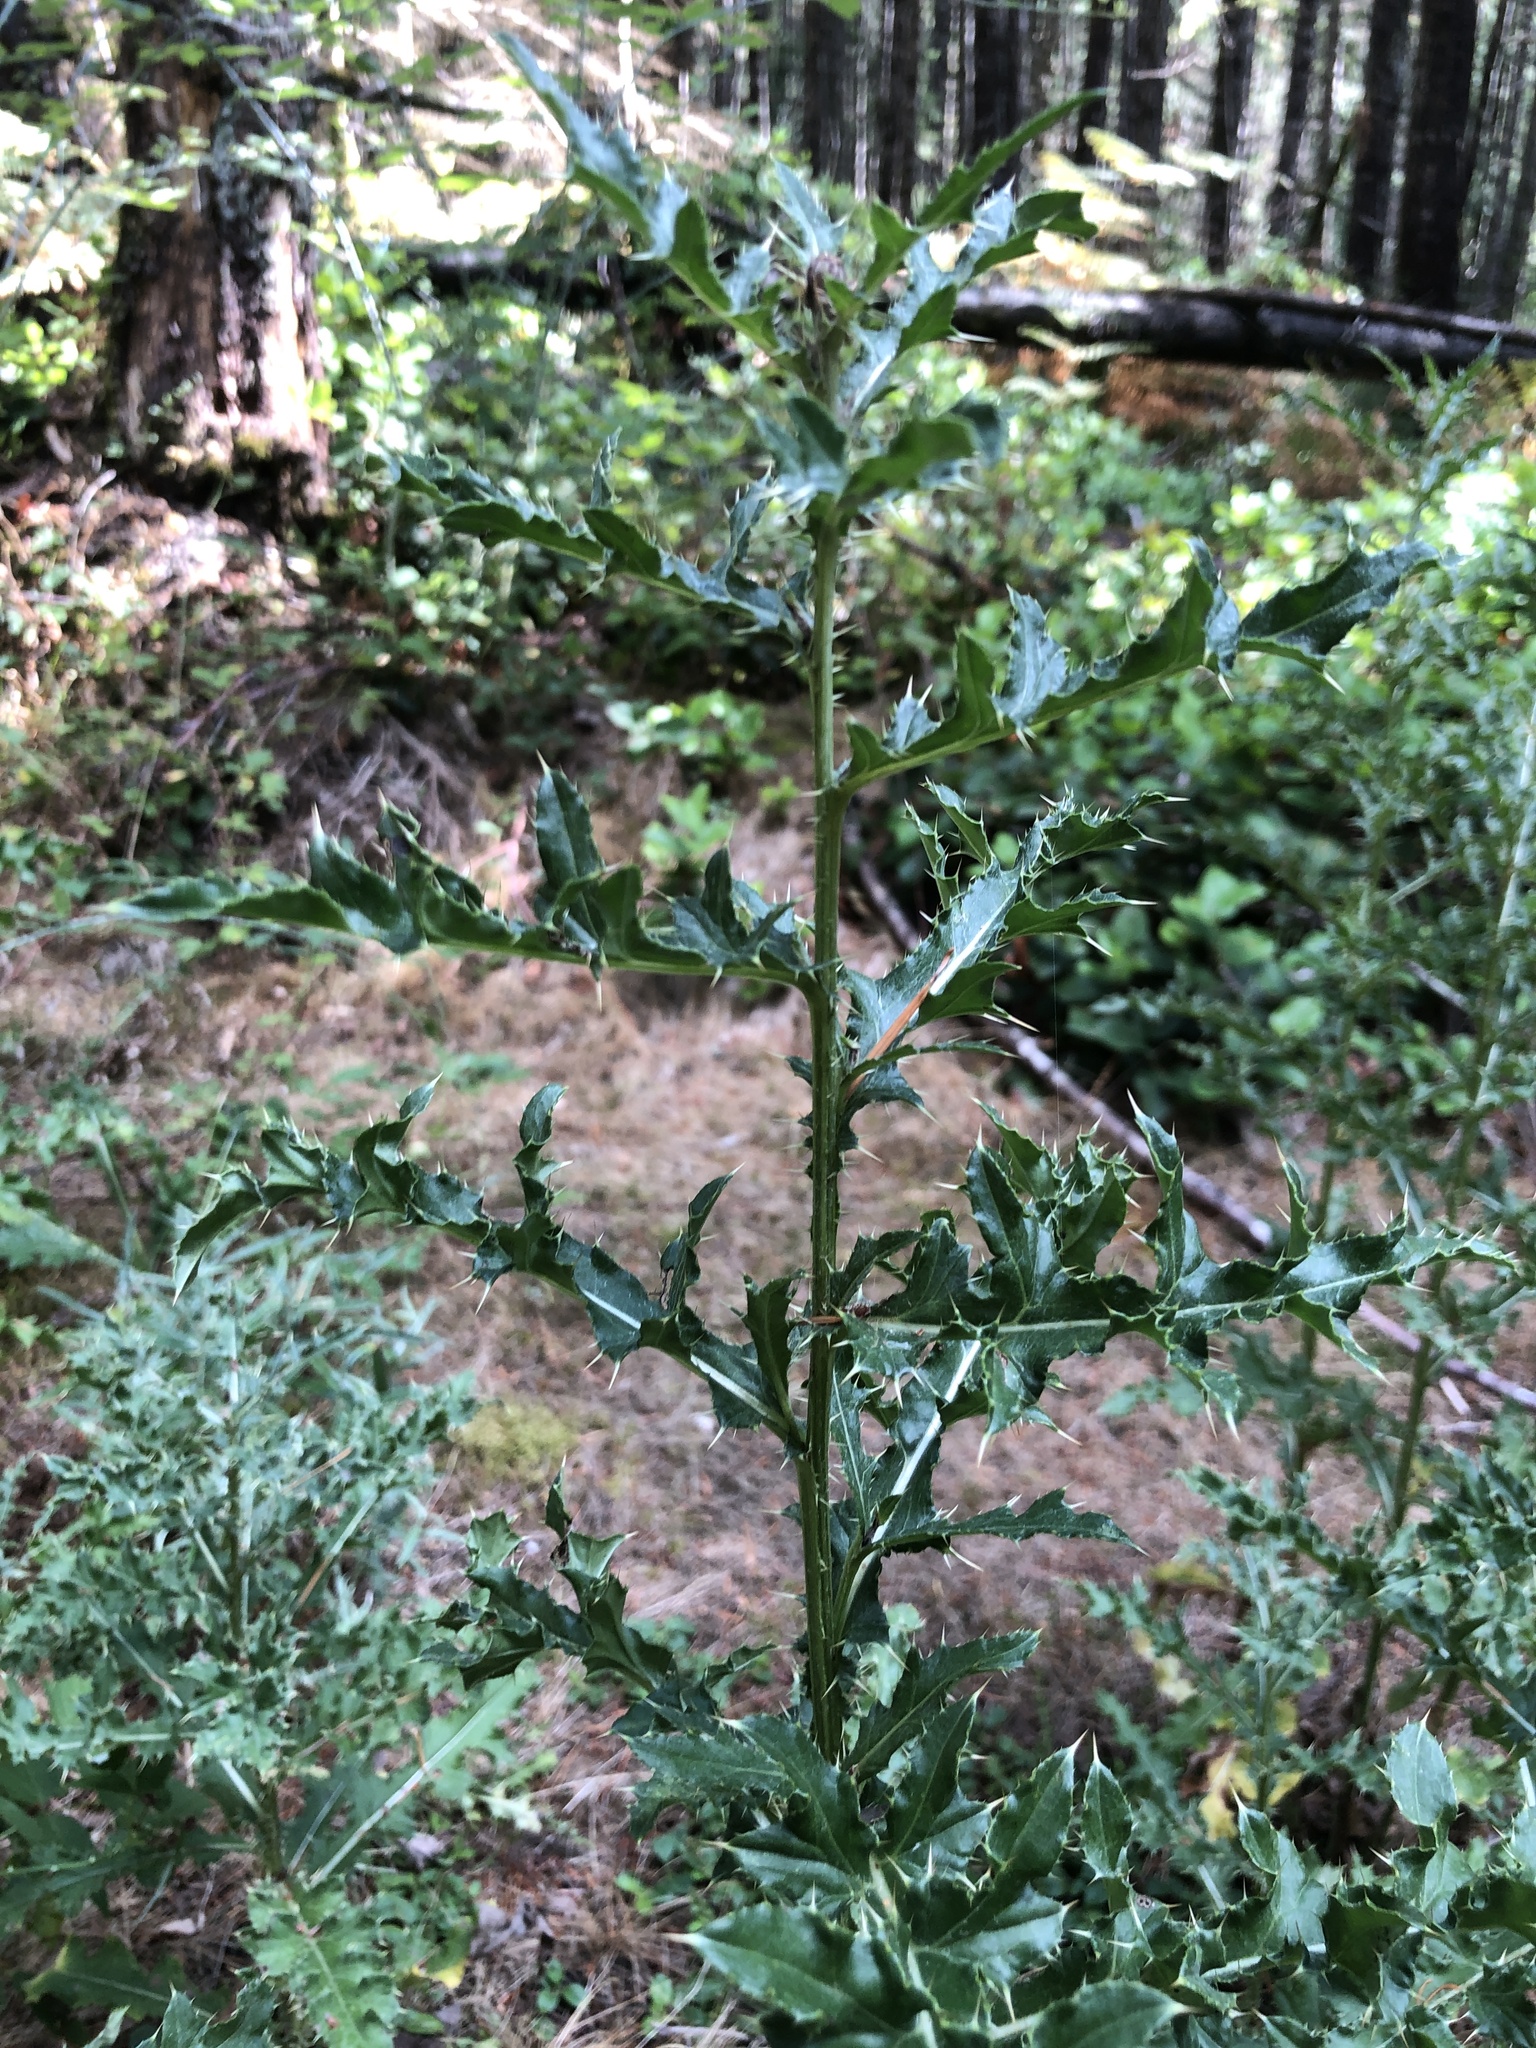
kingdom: Plantae
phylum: Tracheophyta
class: Magnoliopsida
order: Asterales
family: Asteraceae
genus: Cirsium
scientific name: Cirsium arvense
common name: Creeping thistle
